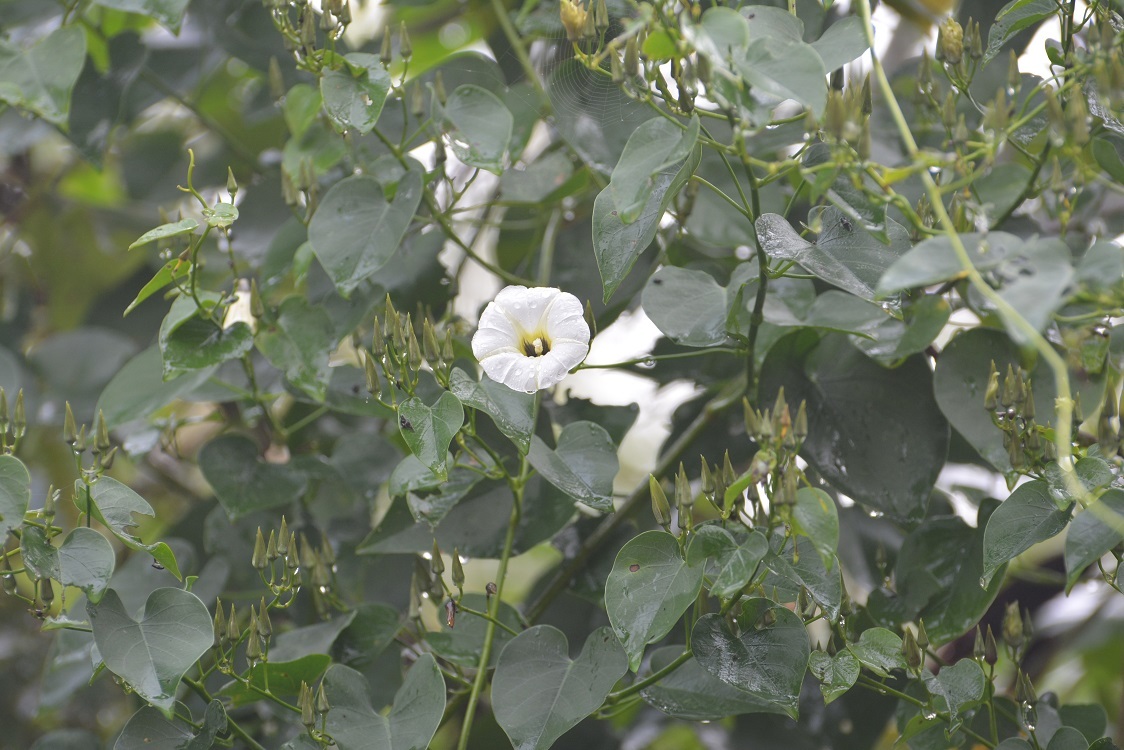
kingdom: Plantae
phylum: Tracheophyta
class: Magnoliopsida
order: Solanales
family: Convolvulaceae
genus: Ipomoea
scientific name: Ipomoea corymbosa
